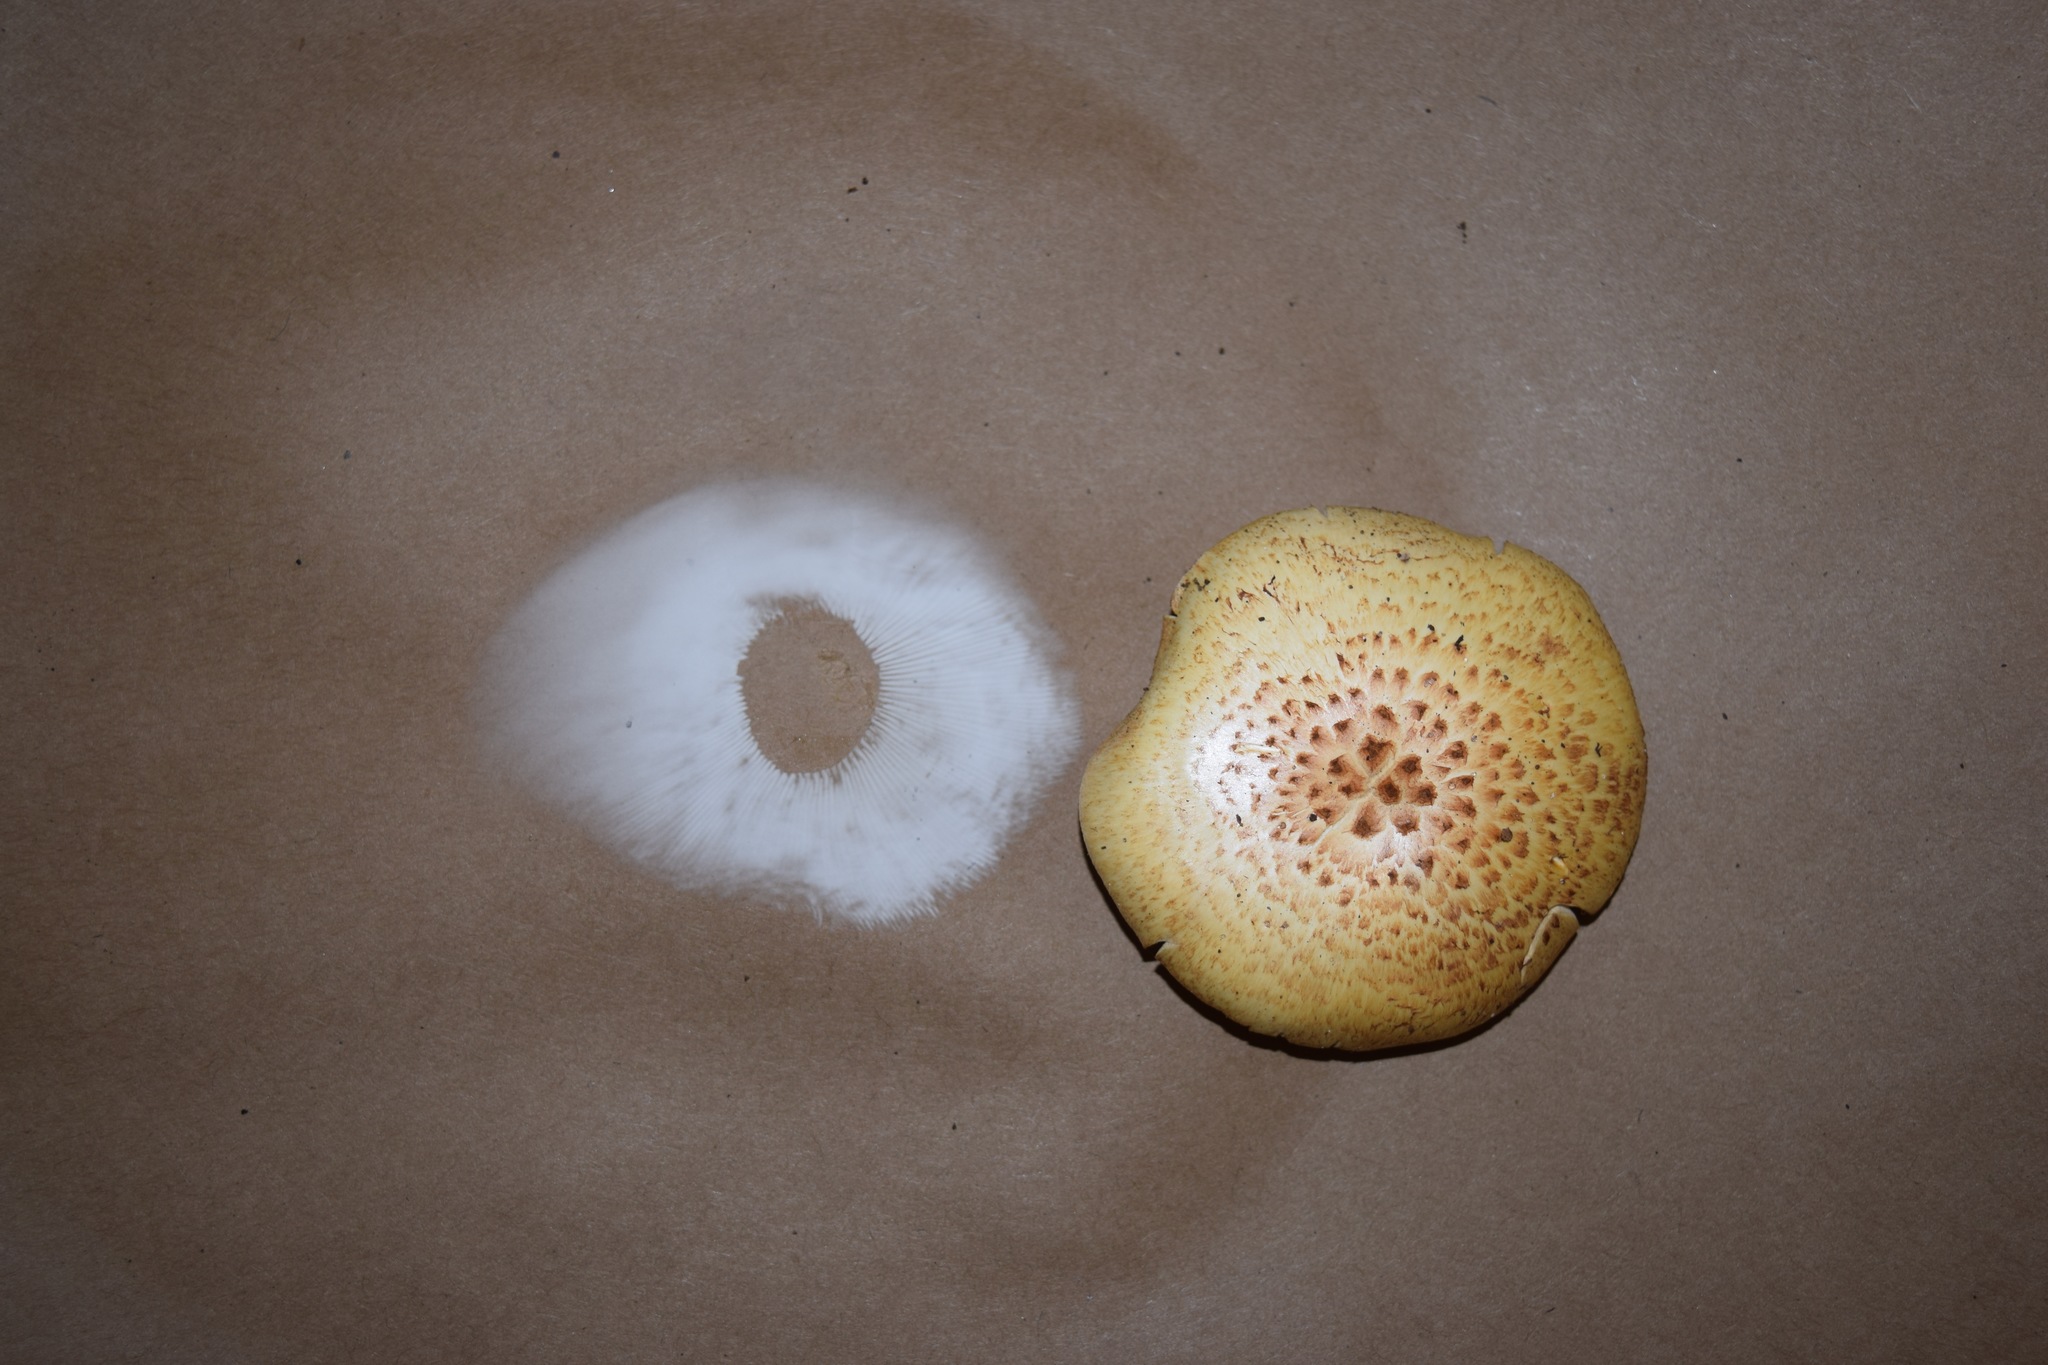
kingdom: Fungi
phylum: Basidiomycota
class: Agaricomycetes
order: Gloeophyllales
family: Gloeophyllaceae
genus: Neolentinus
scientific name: Neolentinus lepideus
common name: Scaly sawgill
